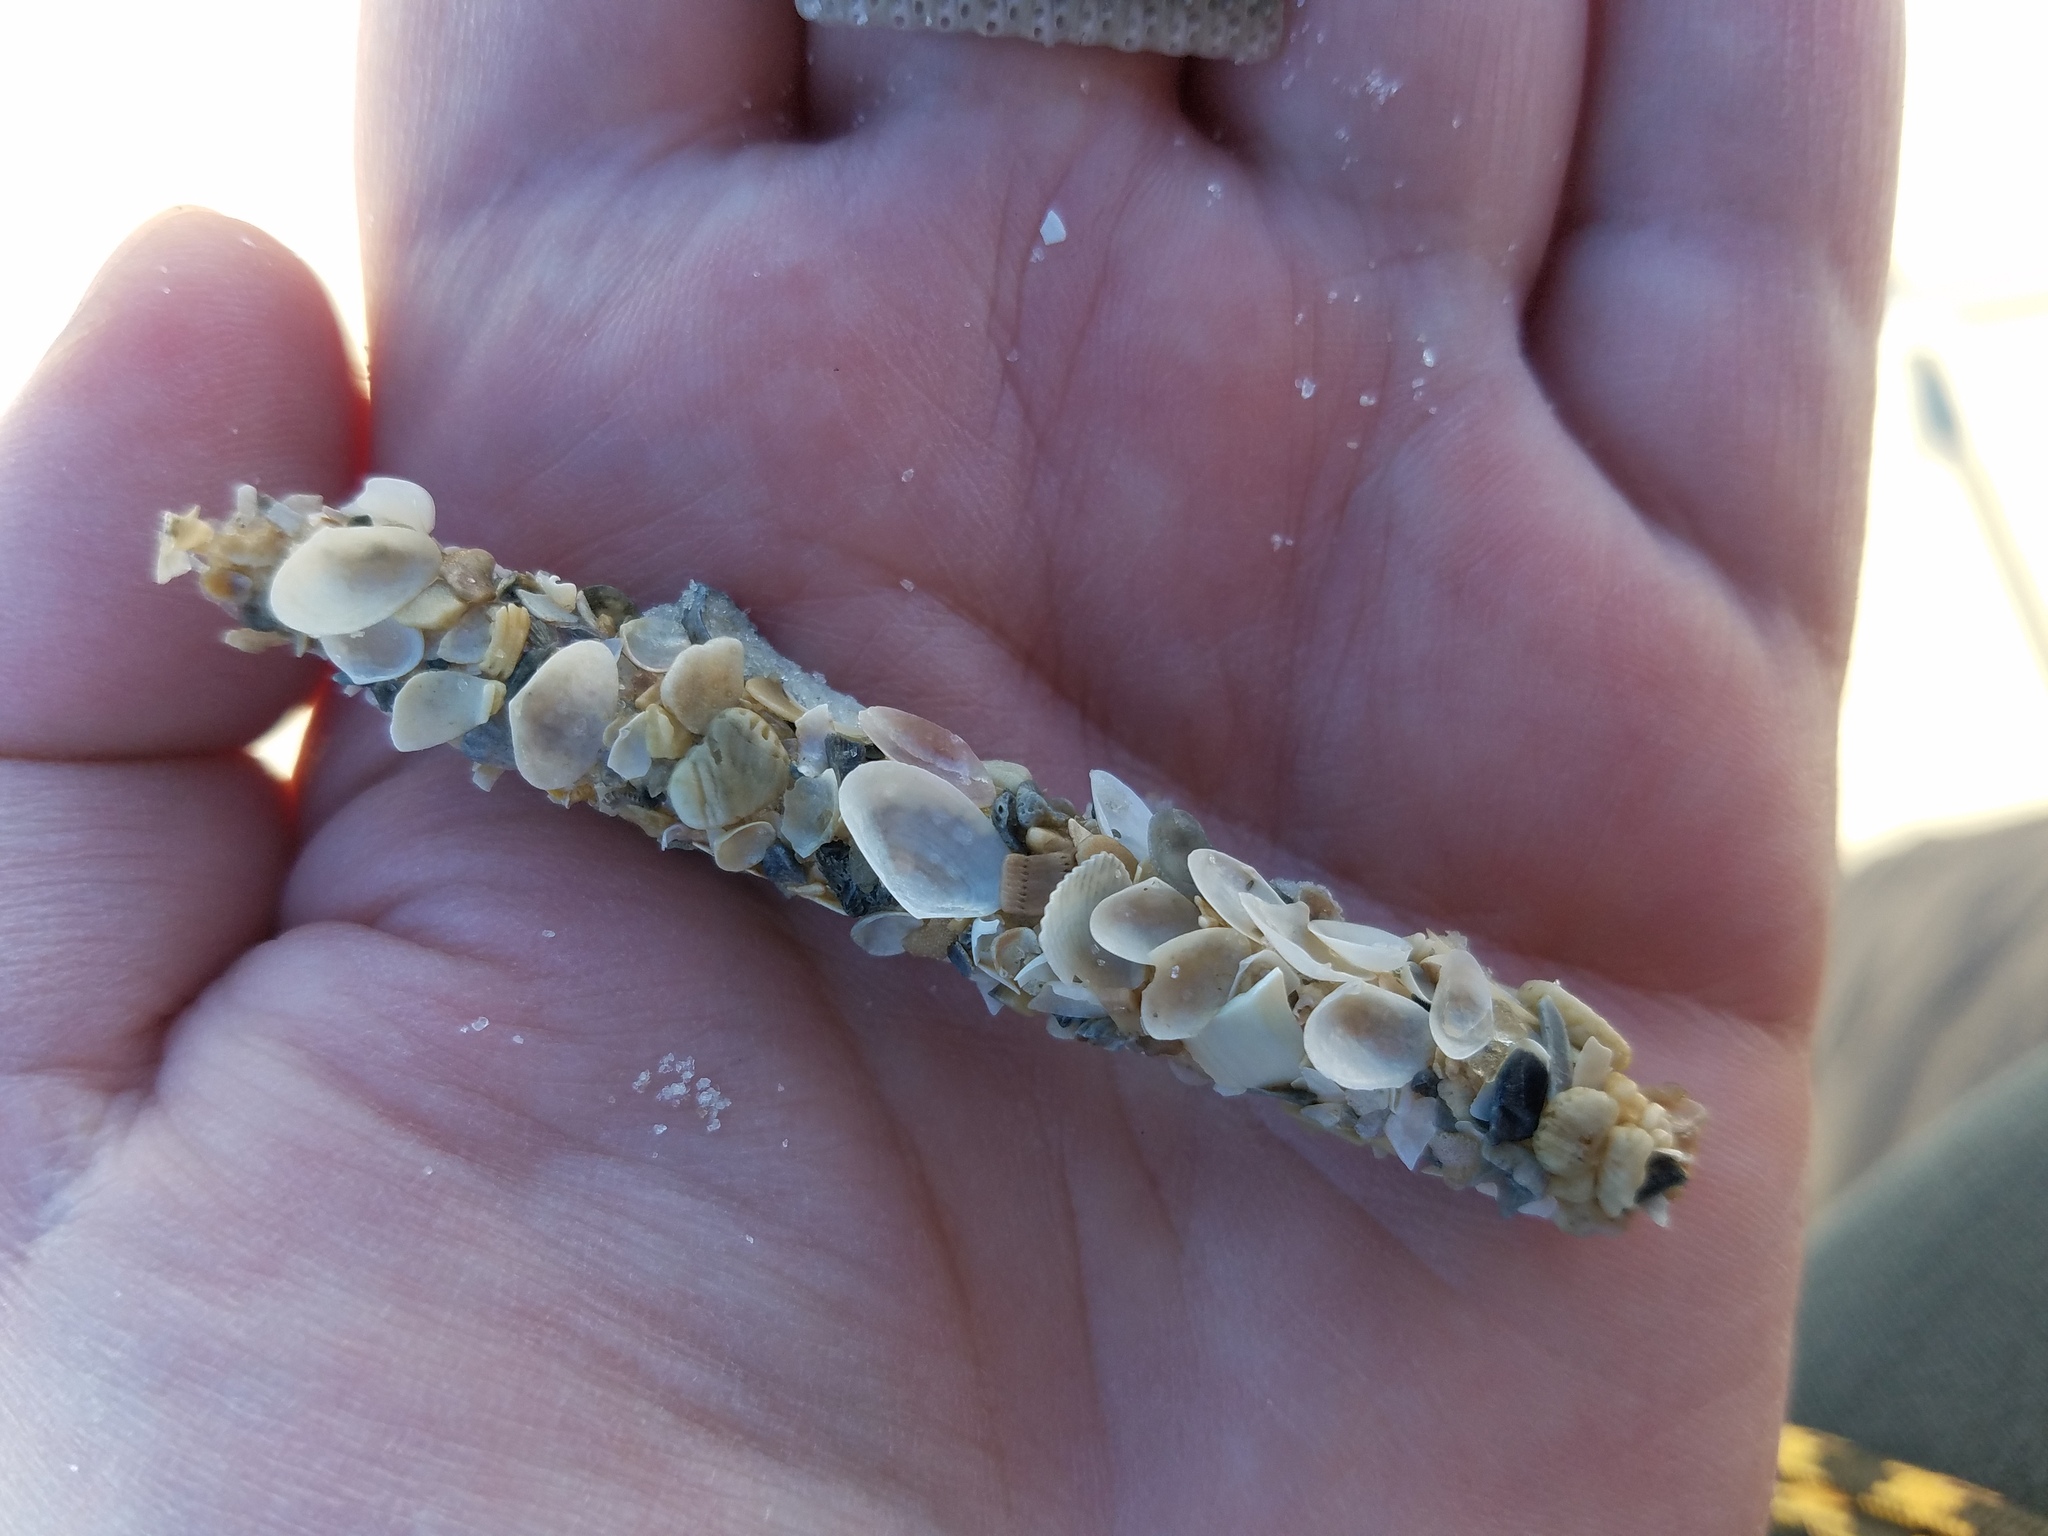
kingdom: Animalia
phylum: Annelida
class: Polychaeta
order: Eunicida
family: Onuphidae
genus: Diopatra
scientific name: Diopatra cuprea
